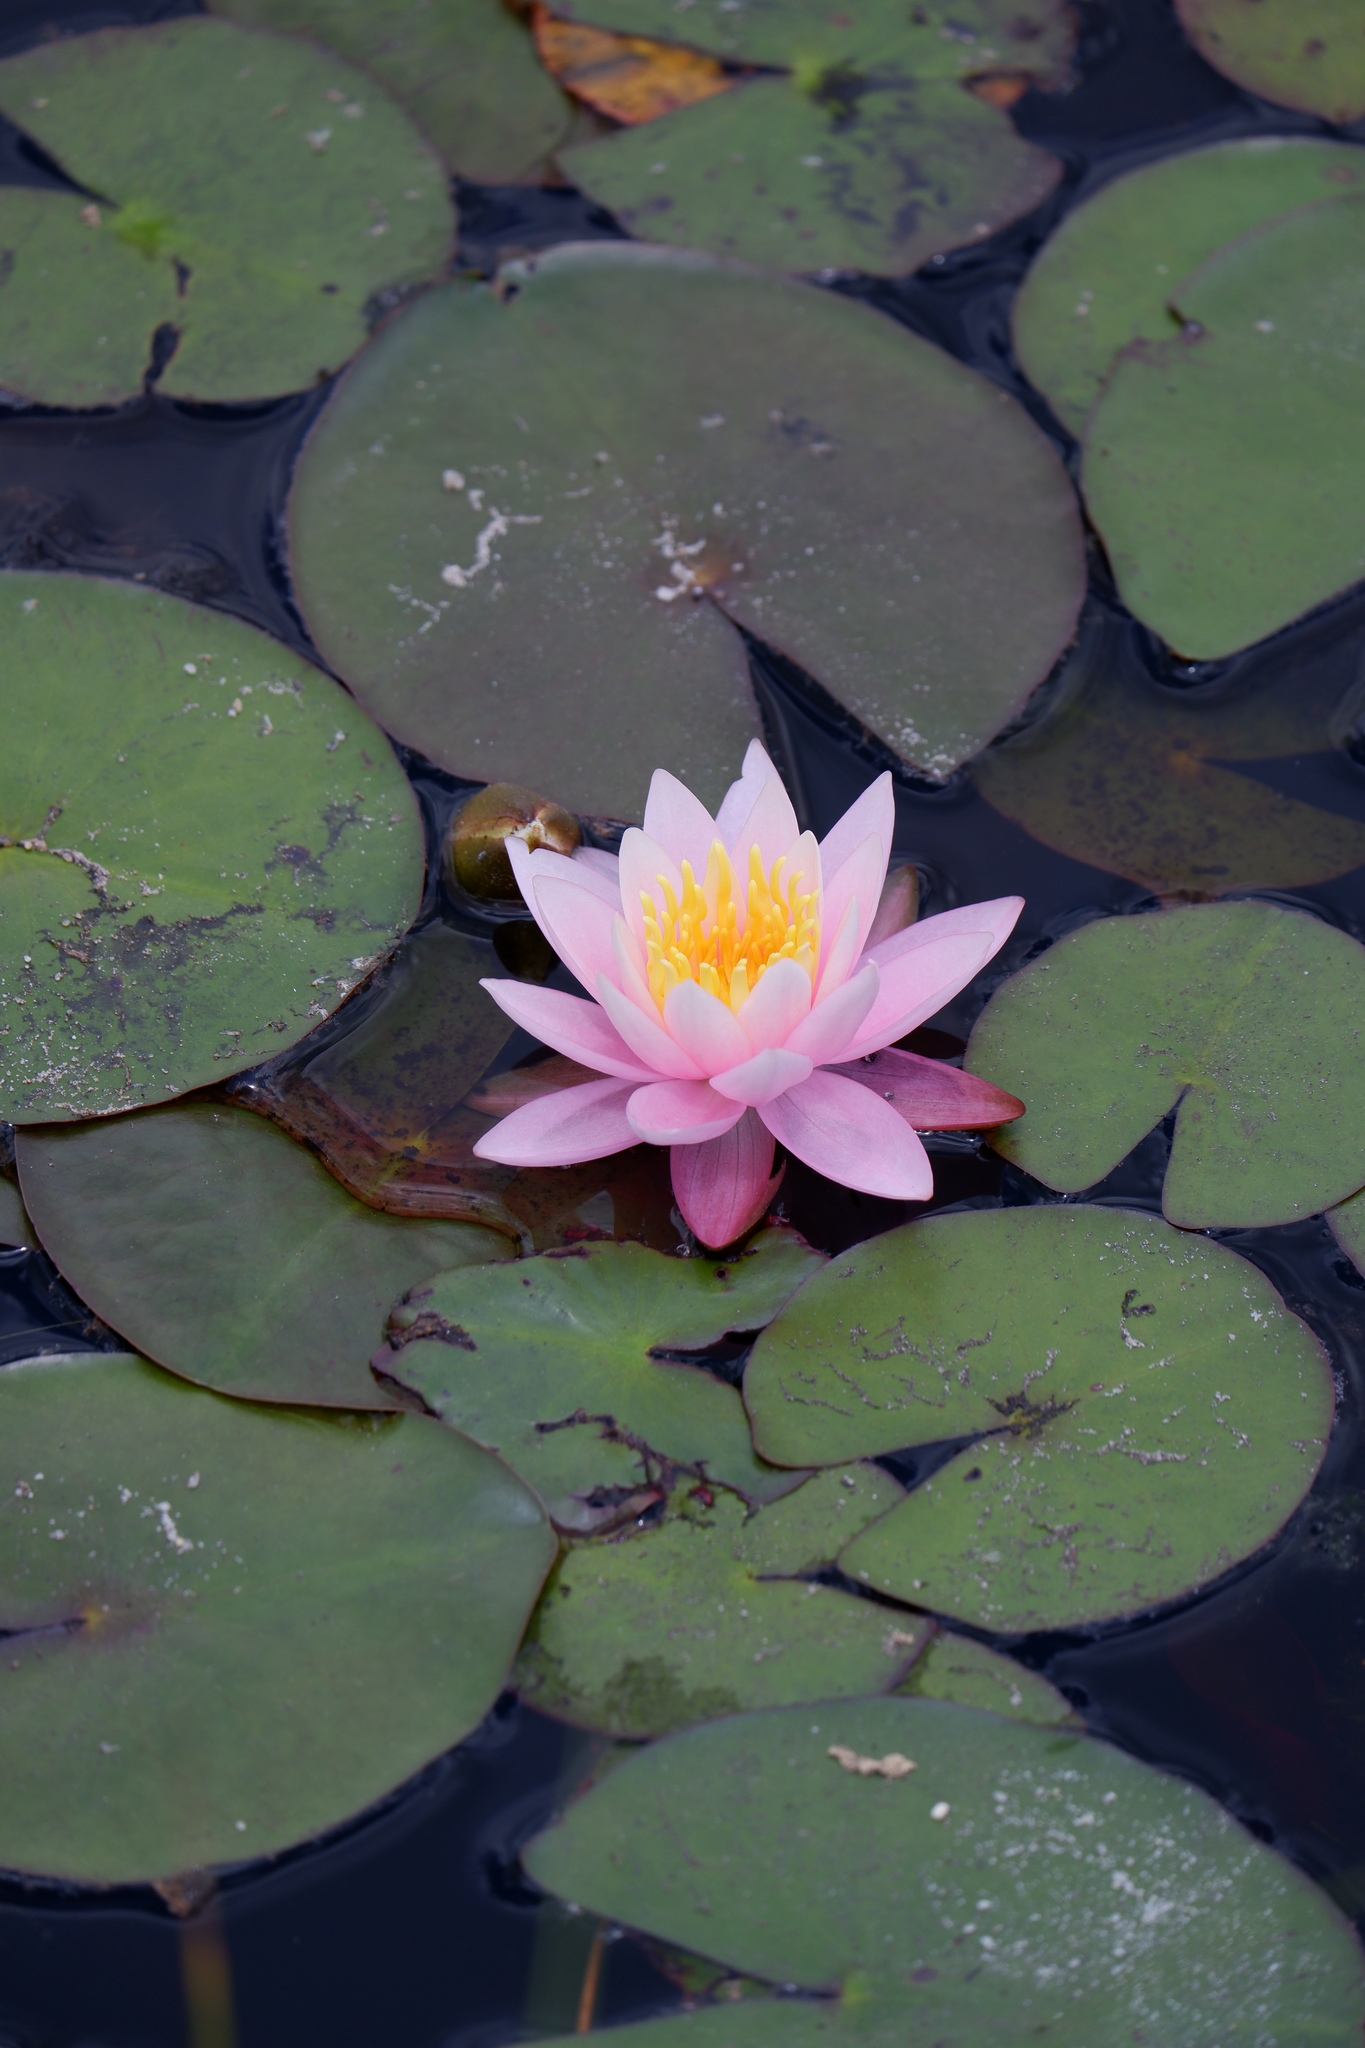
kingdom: Plantae
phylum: Tracheophyta
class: Magnoliopsida
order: Nymphaeales
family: Nymphaeaceae
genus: Nymphaea
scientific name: Nymphaea odorata
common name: Fragrant water-lily
